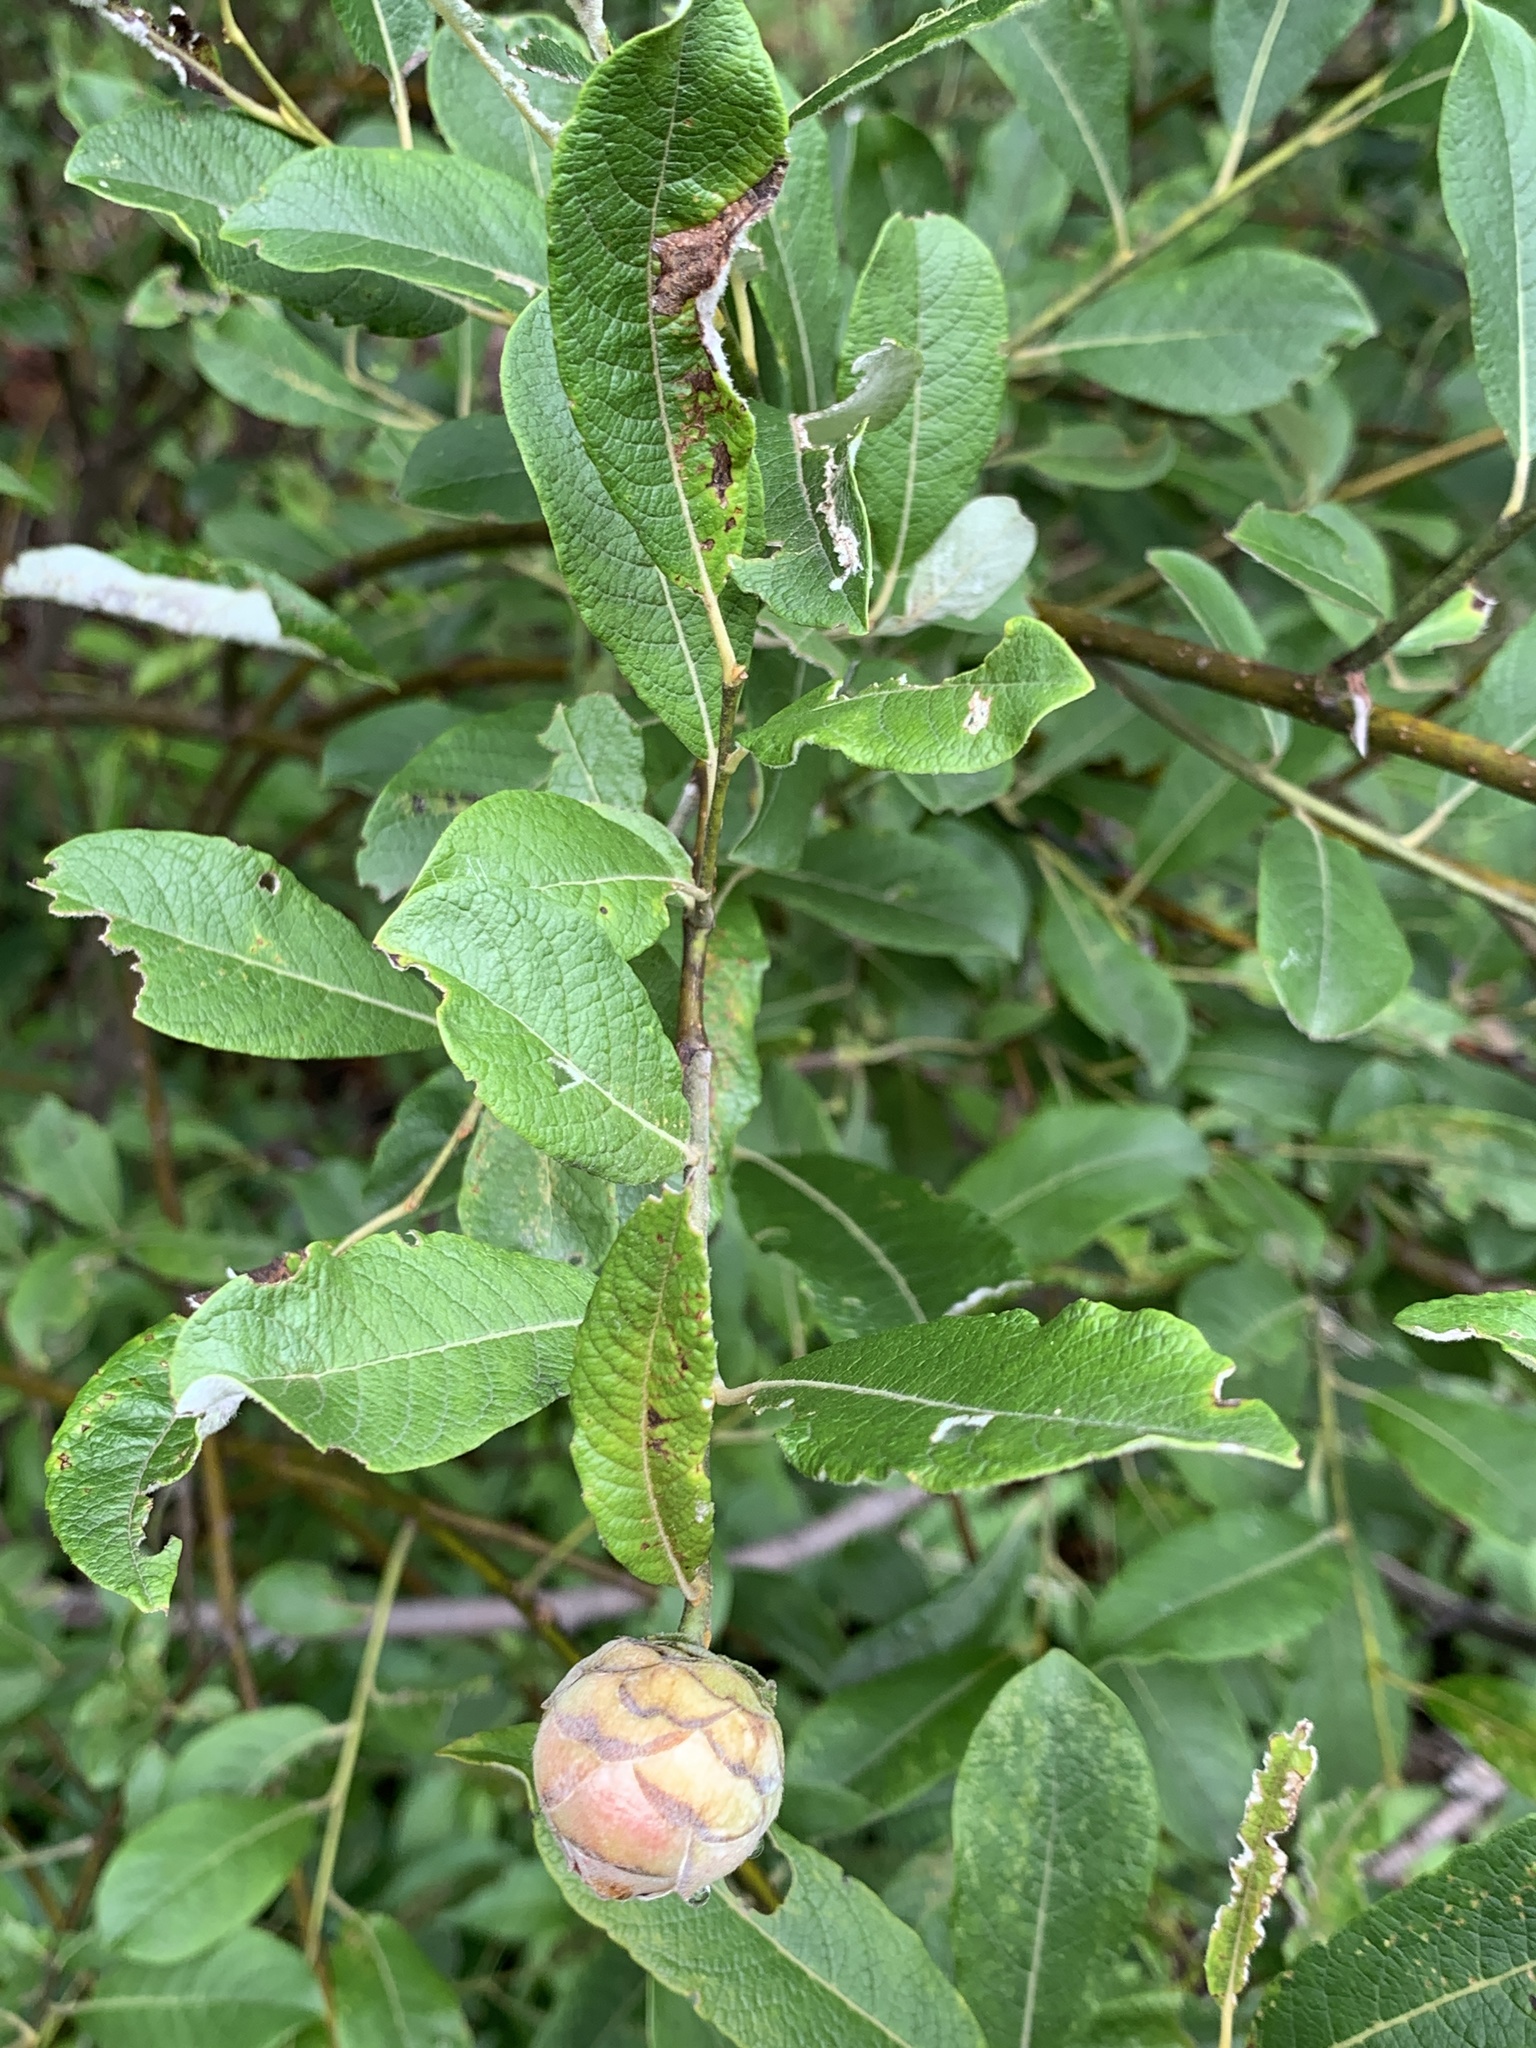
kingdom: Animalia
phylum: Arthropoda
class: Insecta
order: Diptera
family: Cecidomyiidae
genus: Rabdophaga
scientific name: Rabdophaga strobiloides
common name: Willow pinecone gall midge
